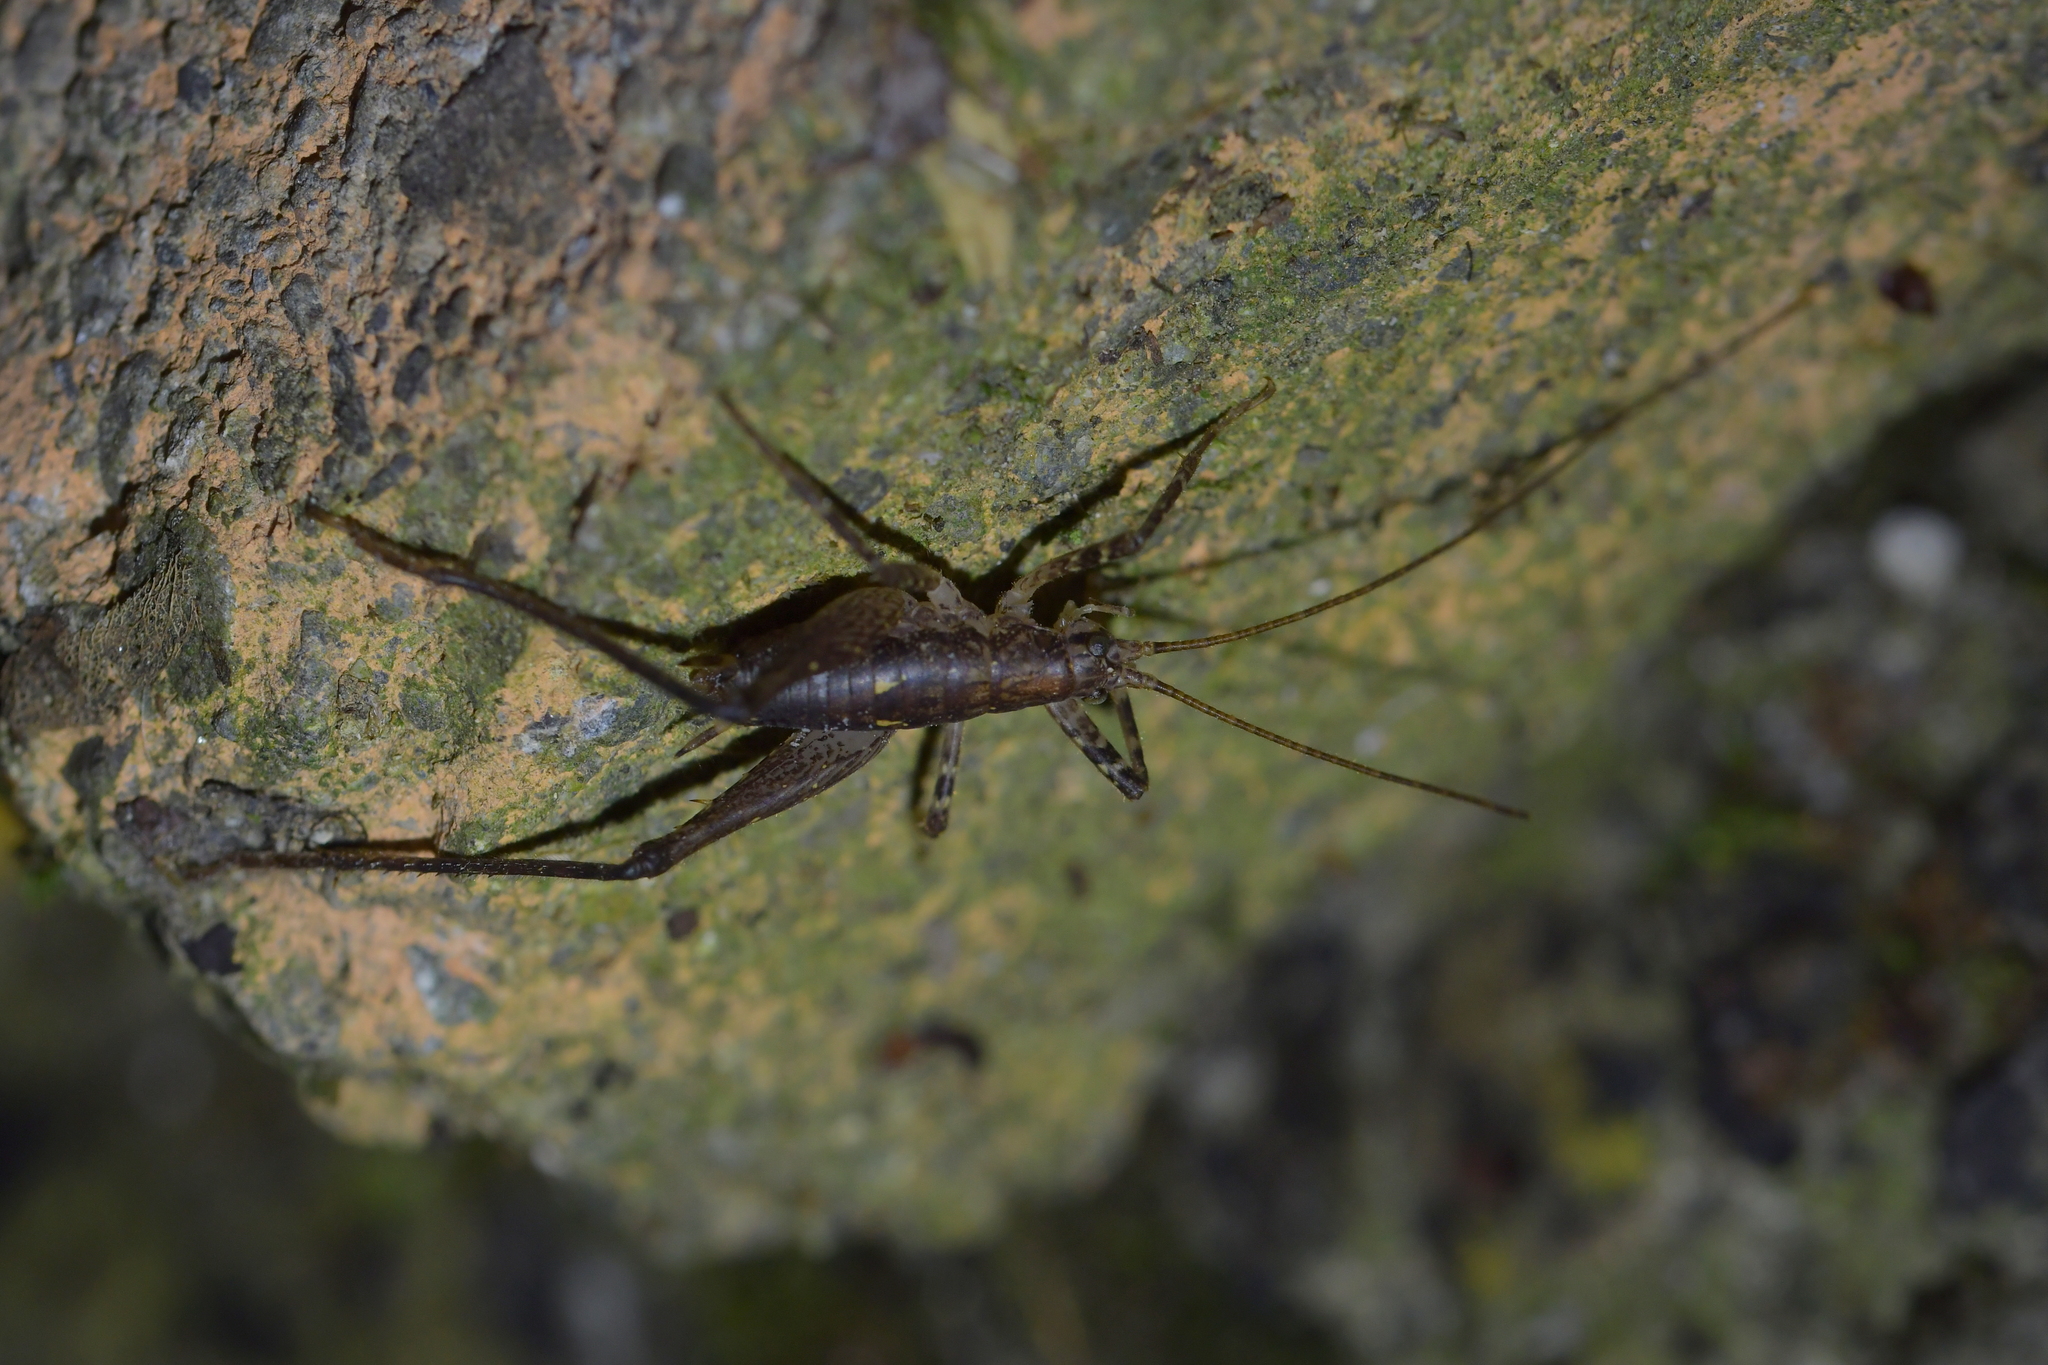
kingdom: Animalia
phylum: Arthropoda
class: Insecta
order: Orthoptera
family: Rhaphidophoridae
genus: Isoplectron
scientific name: Isoplectron armatum
